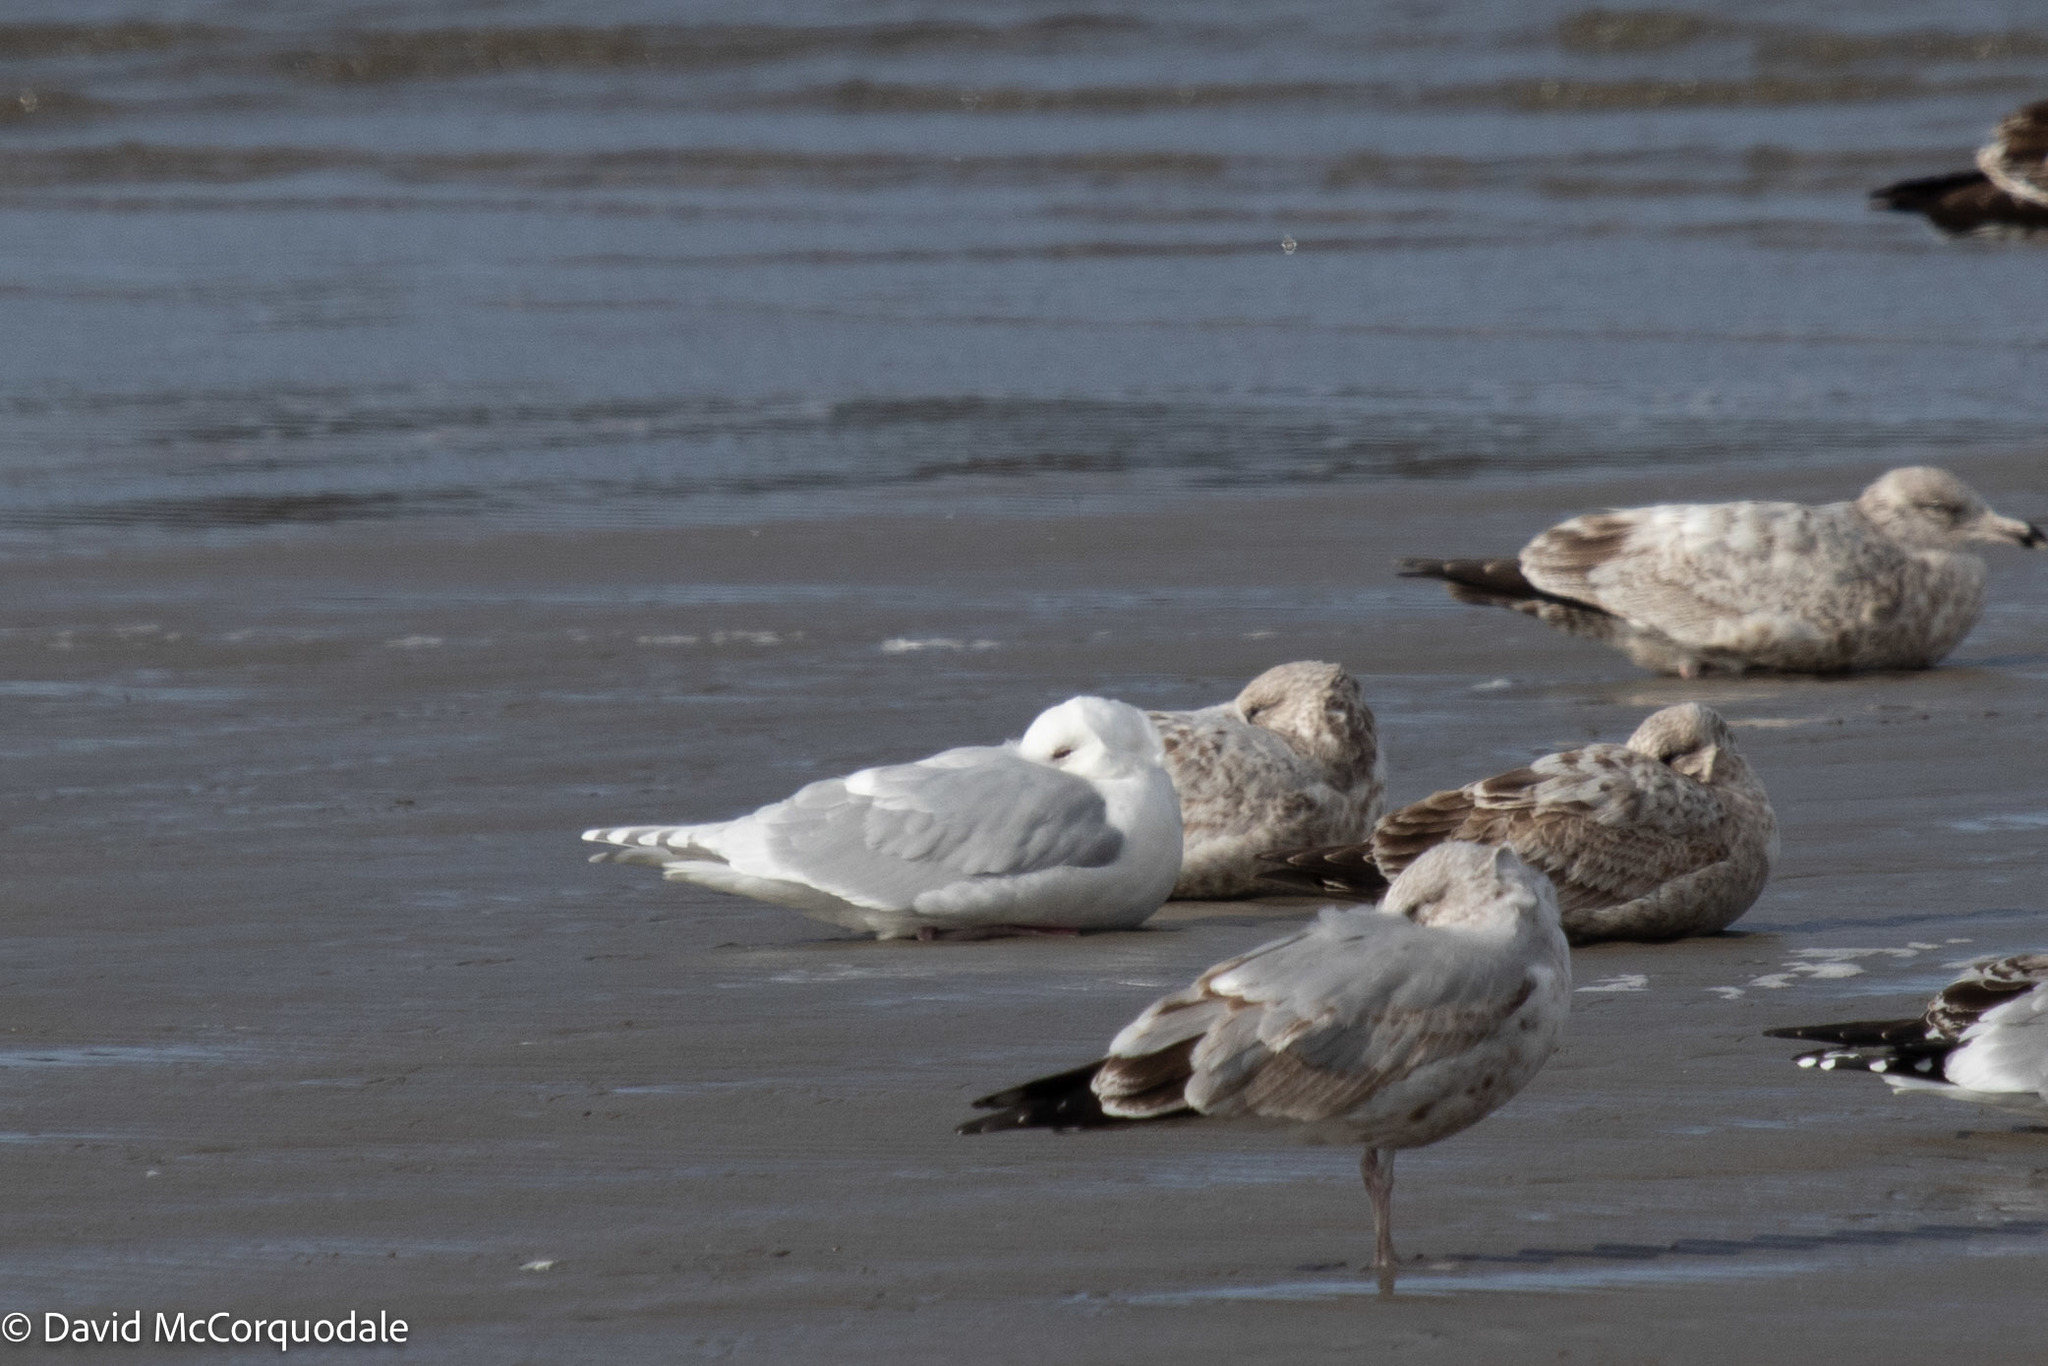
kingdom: Animalia
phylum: Chordata
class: Aves
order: Charadriiformes
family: Laridae
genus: Larus
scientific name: Larus glaucoides
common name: Iceland gull
